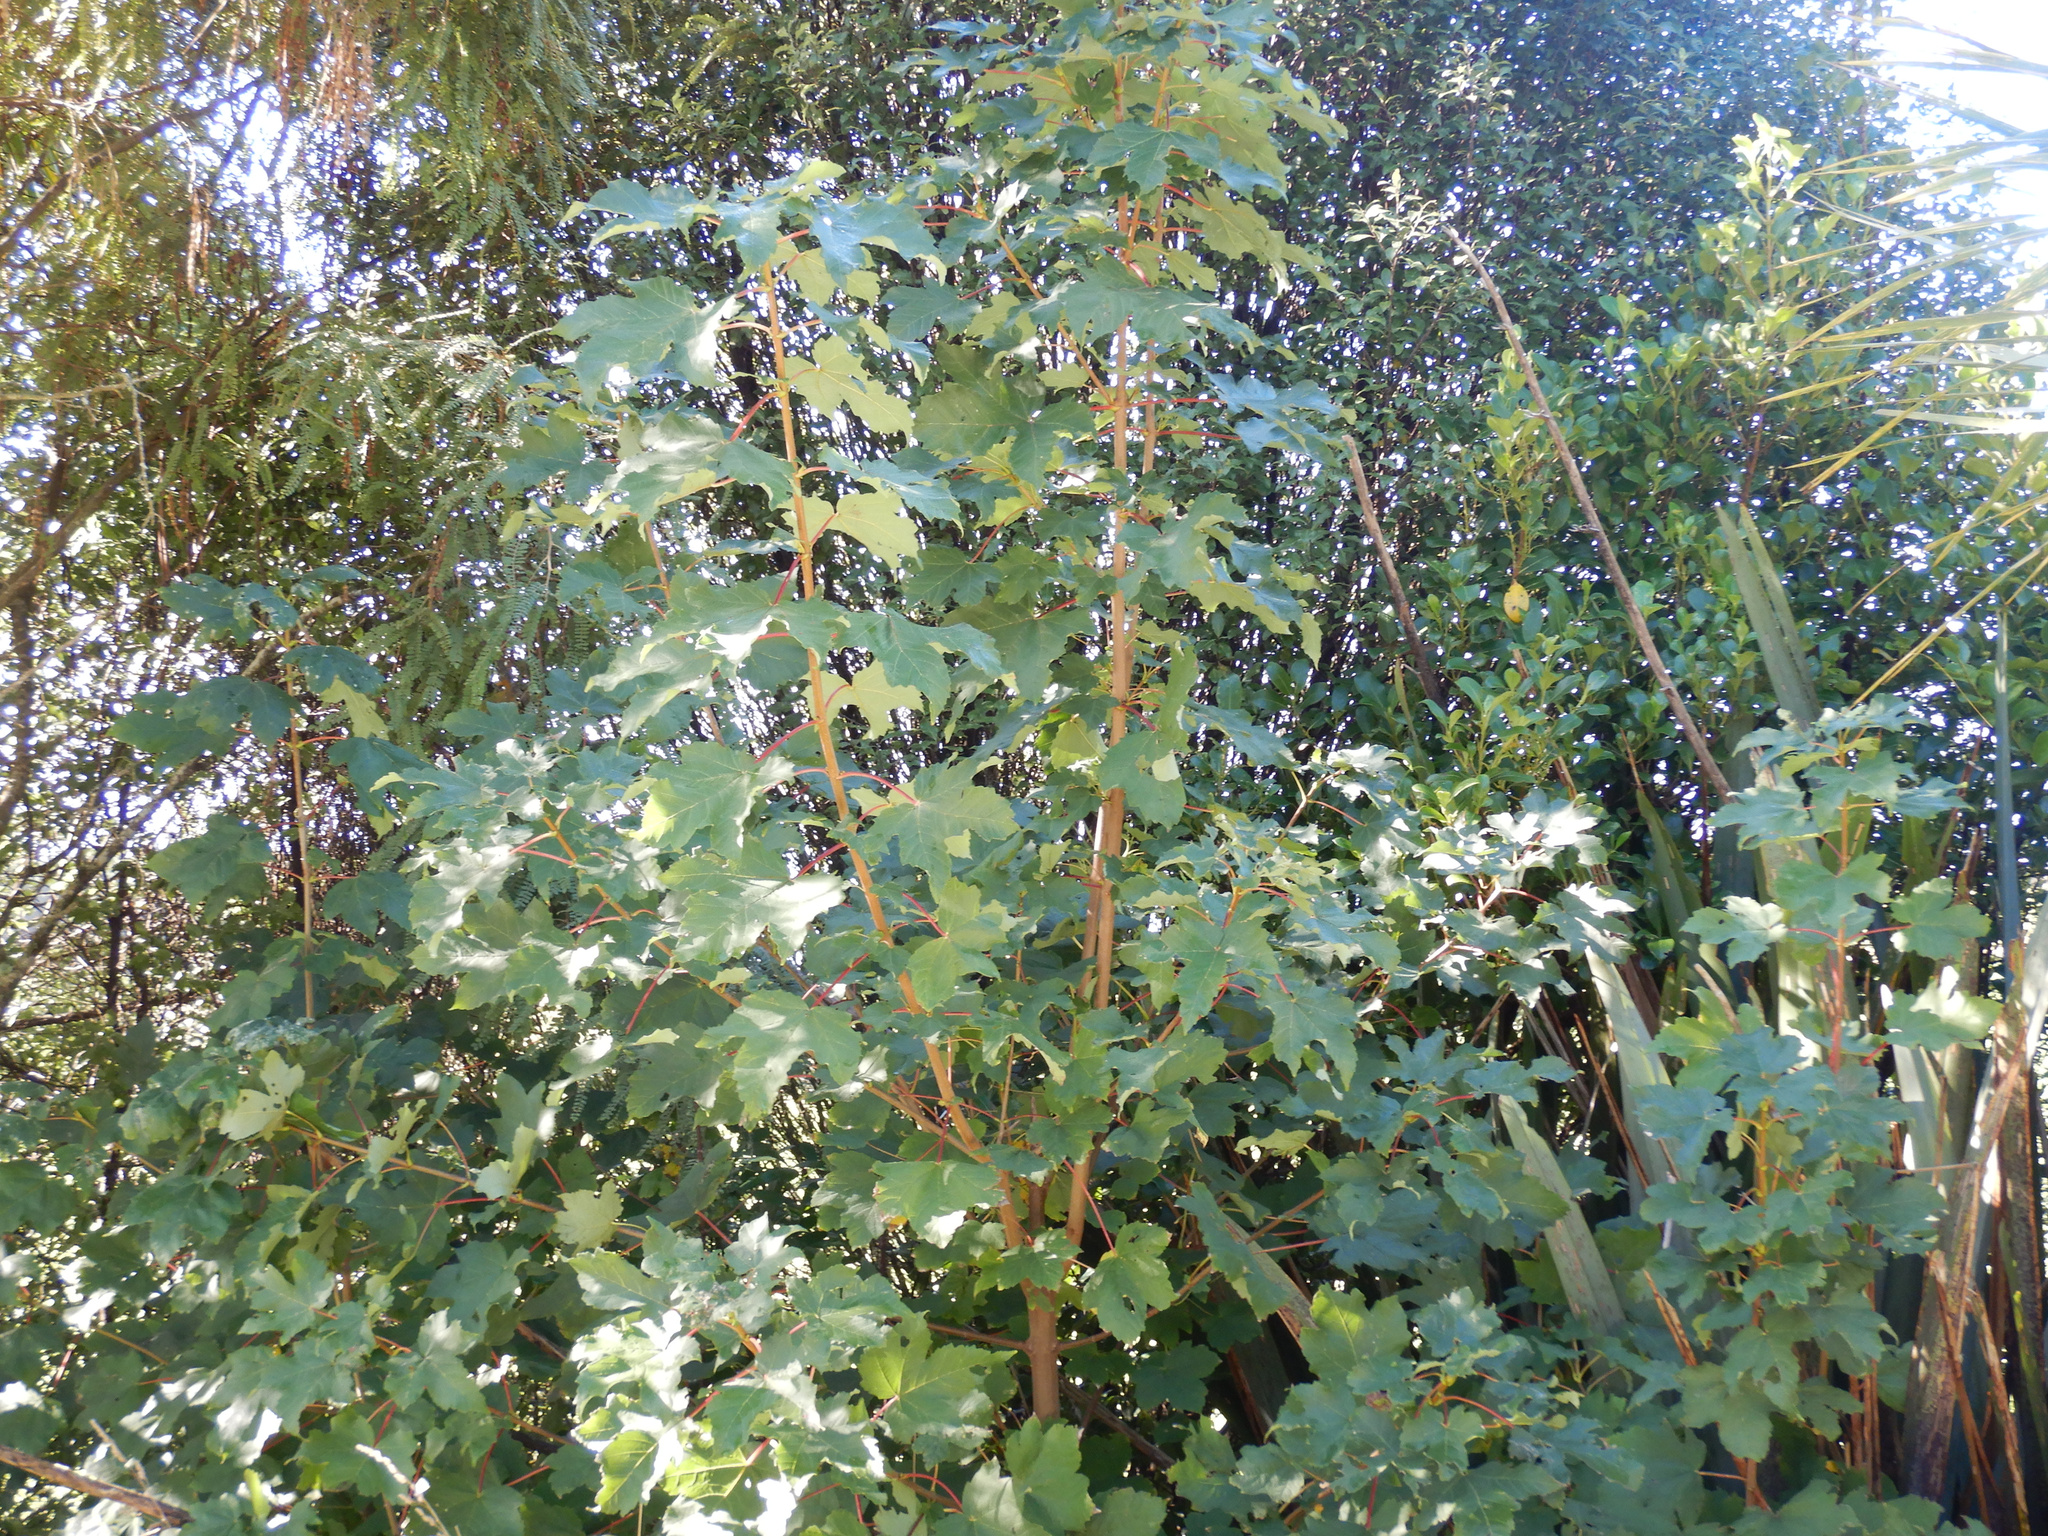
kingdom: Plantae
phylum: Tracheophyta
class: Magnoliopsida
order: Sapindales
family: Sapindaceae
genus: Acer
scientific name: Acer pseudoplatanus
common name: Sycamore
